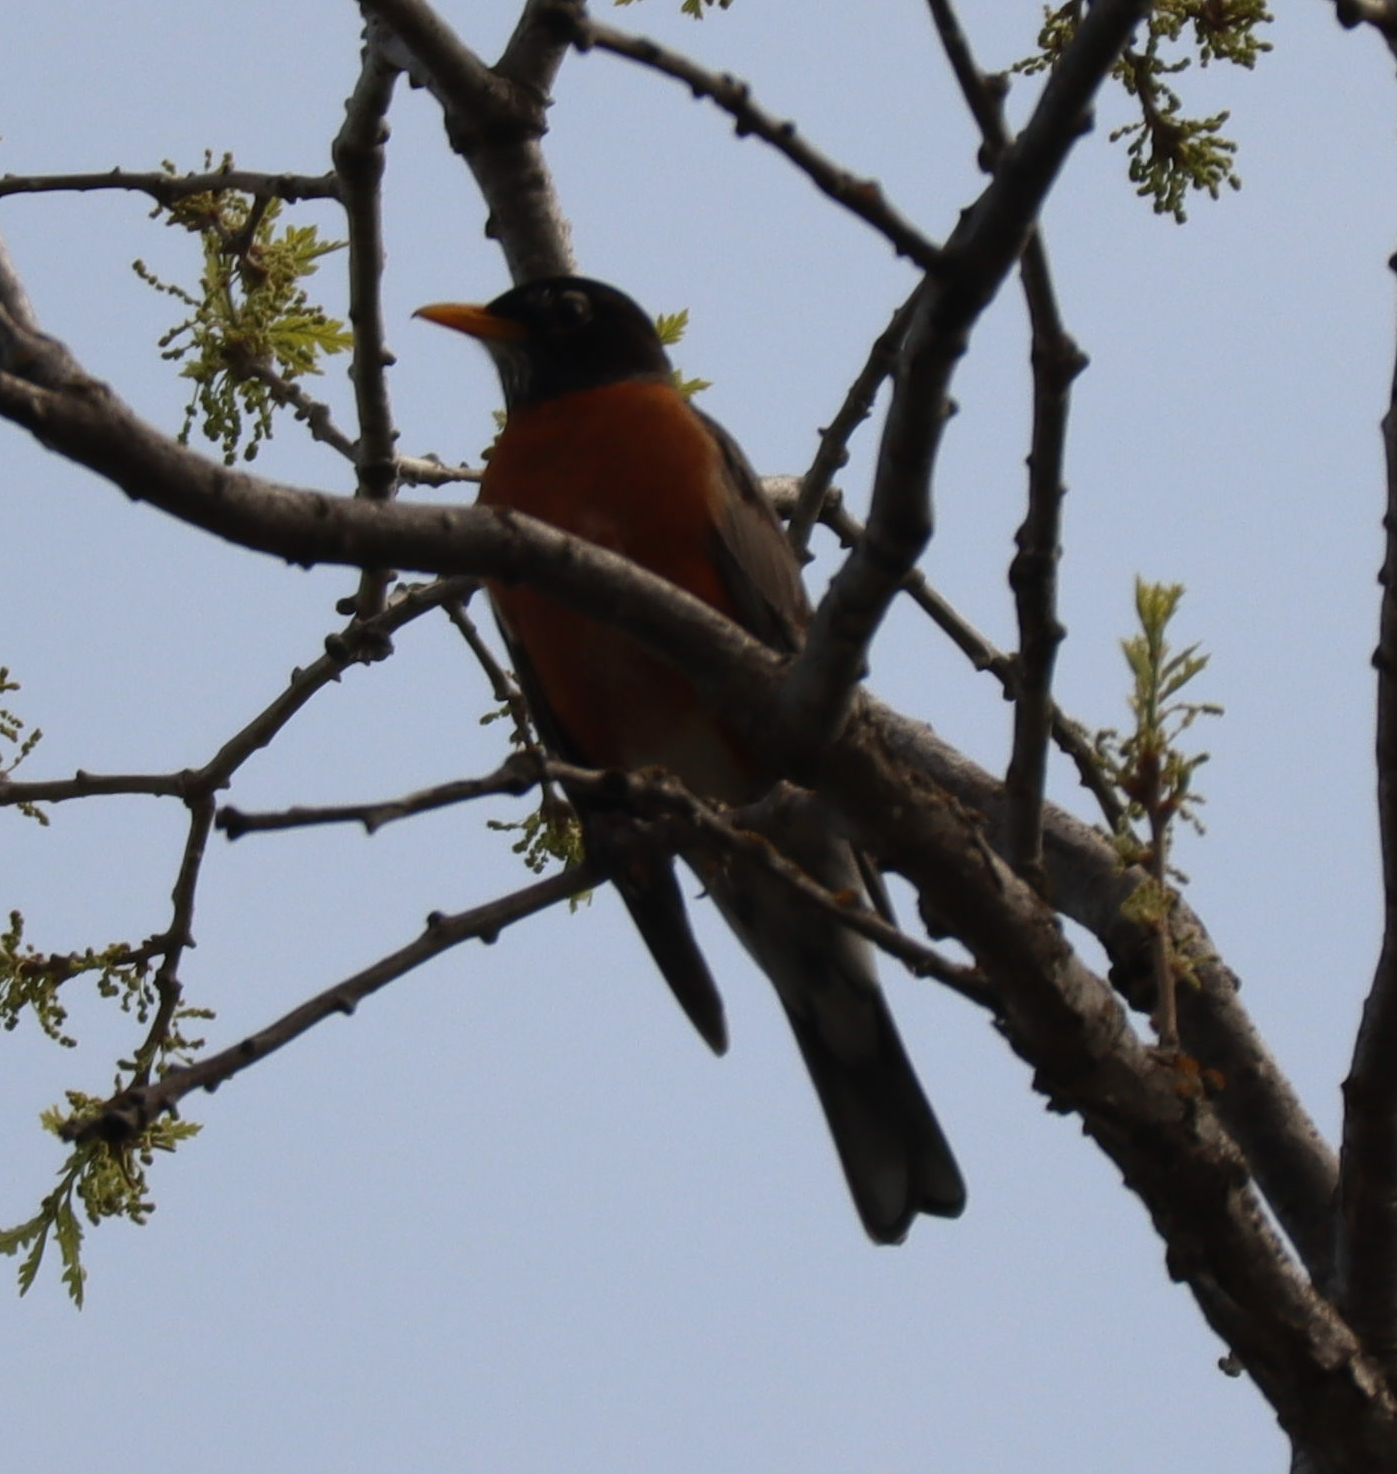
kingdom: Animalia
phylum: Chordata
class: Aves
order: Passeriformes
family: Turdidae
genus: Turdus
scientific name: Turdus migratorius
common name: American robin
